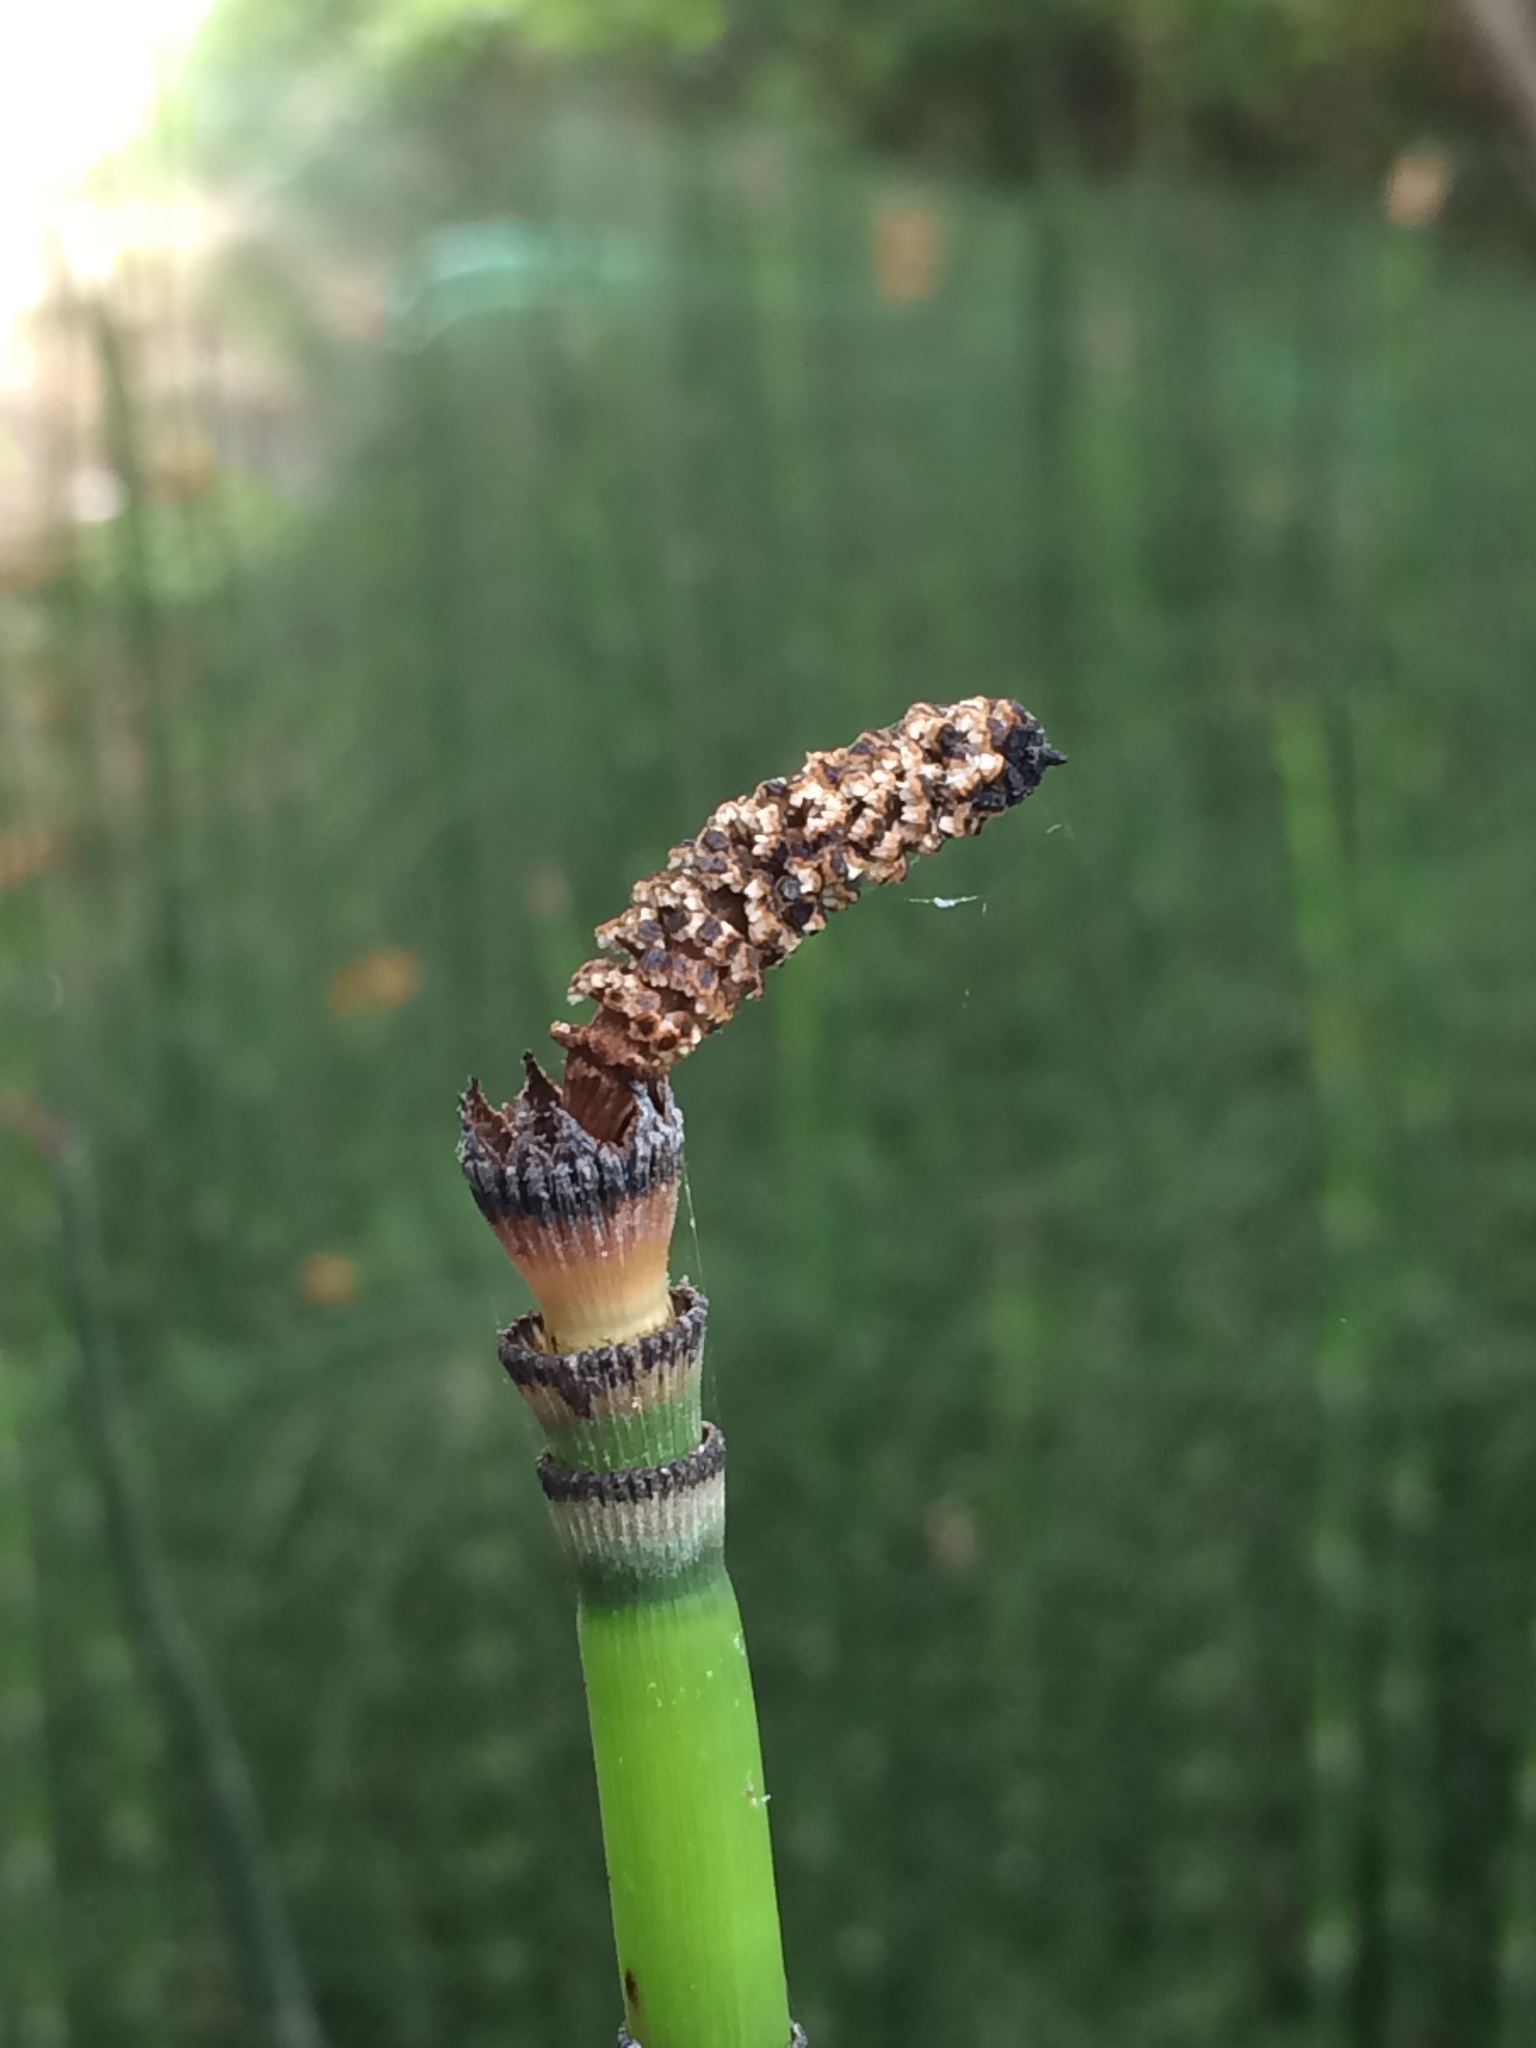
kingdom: Plantae
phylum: Tracheophyta
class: Polypodiopsida
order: Equisetales
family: Equisetaceae
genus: Equisetum
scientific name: Equisetum hyemale
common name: Rough horsetail
